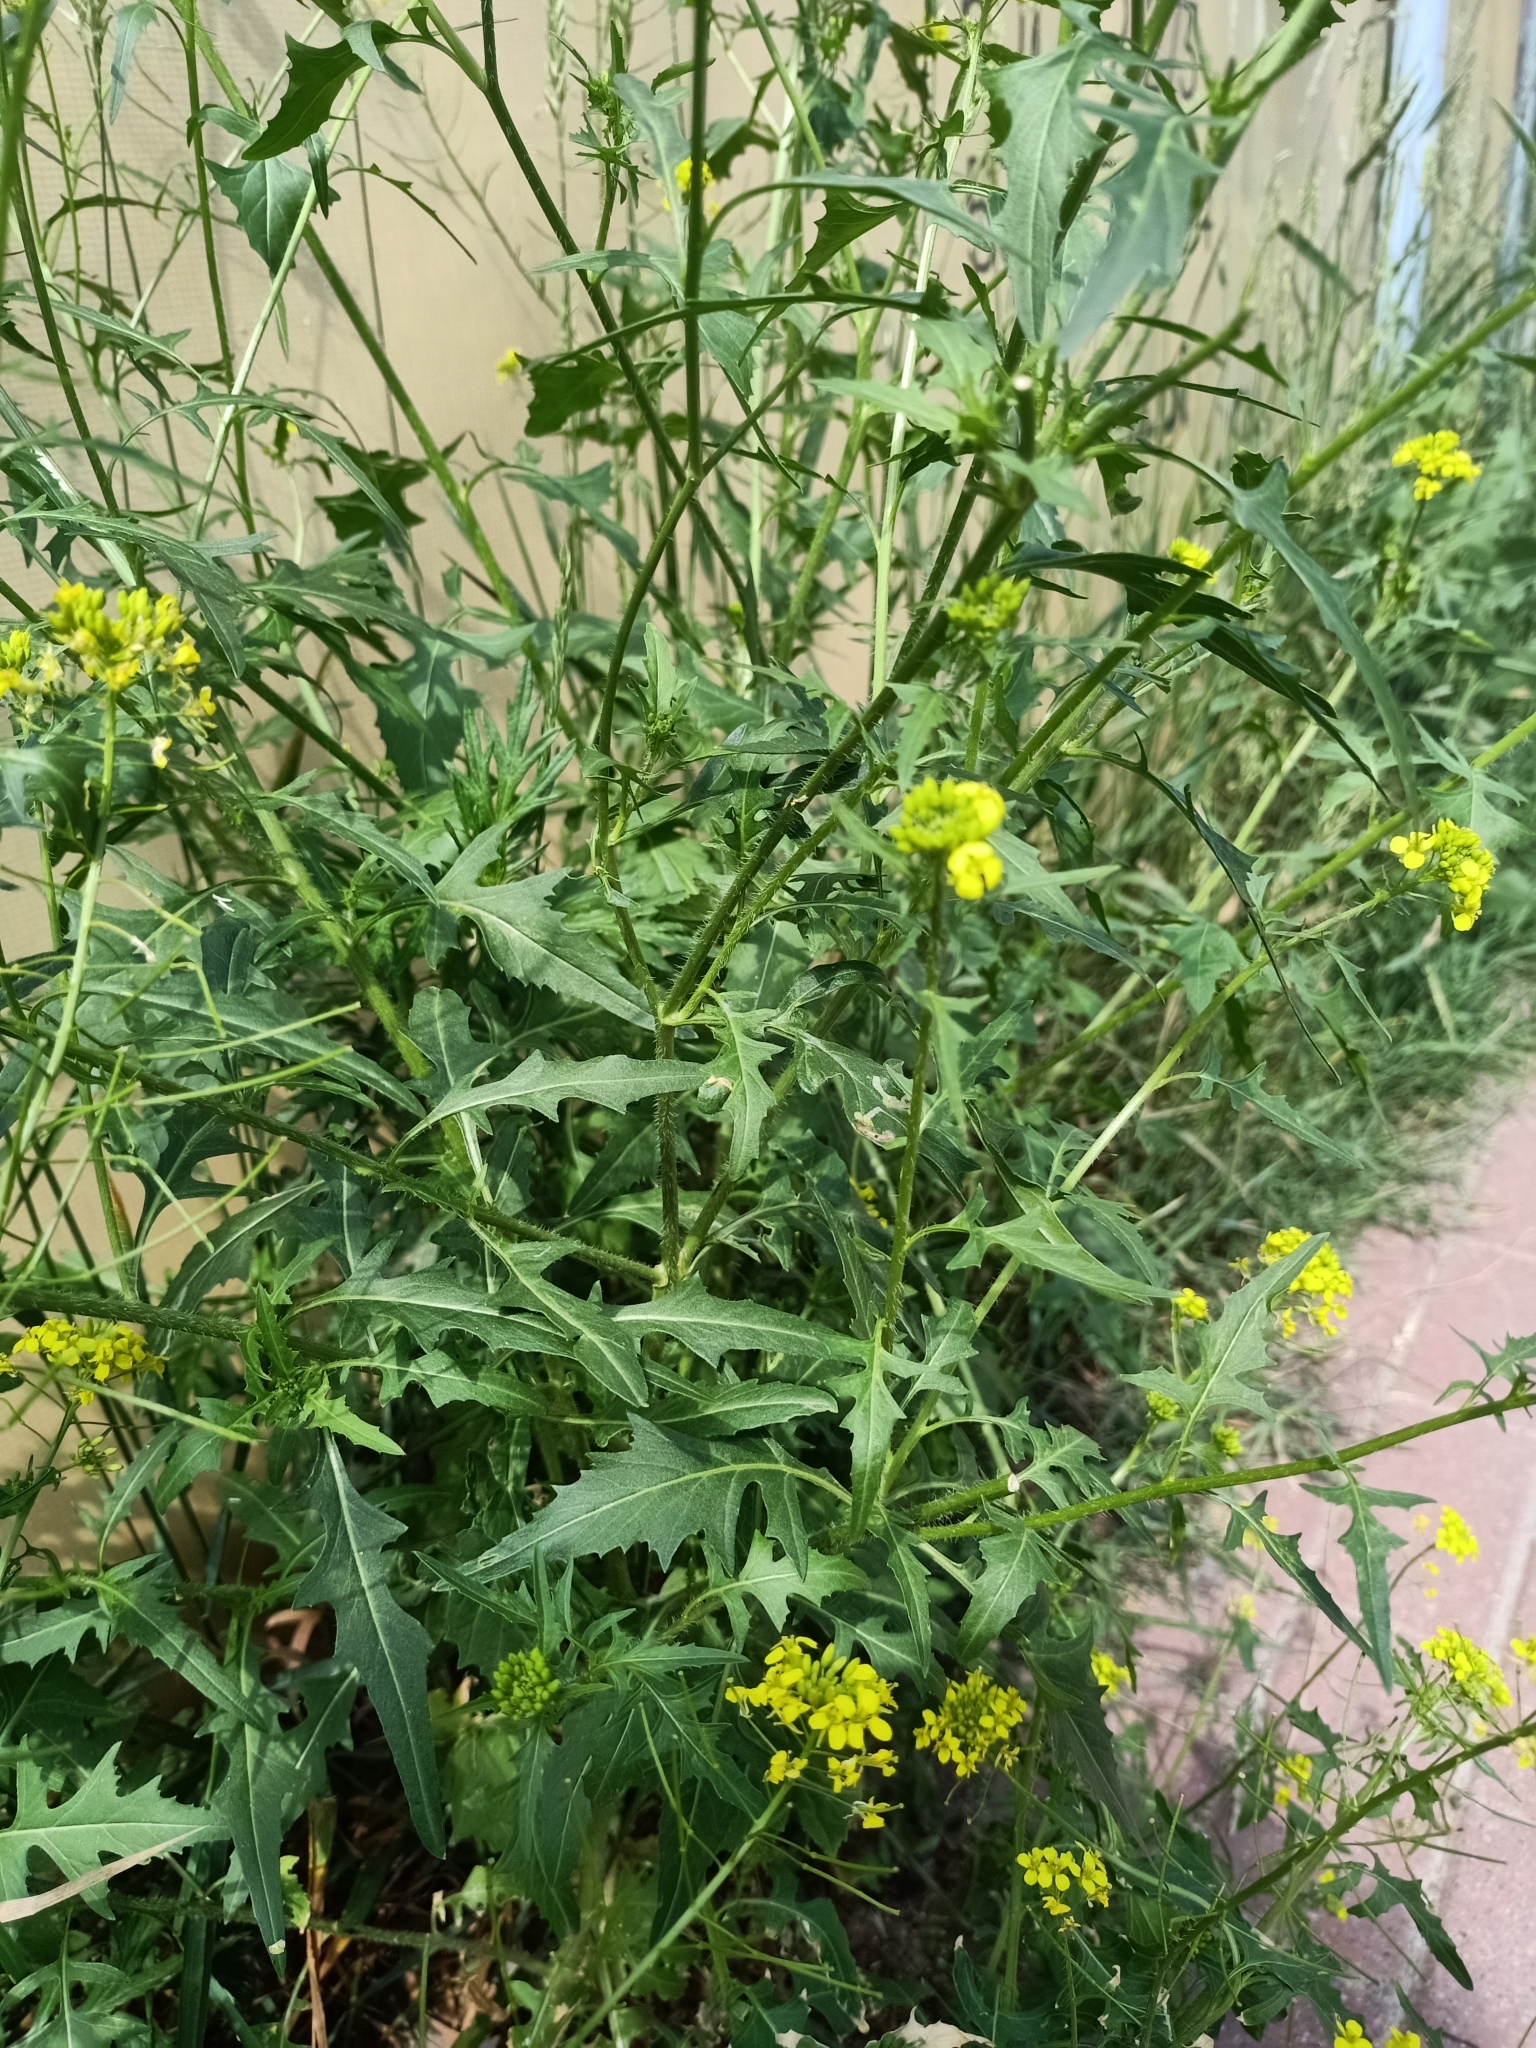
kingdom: Plantae
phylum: Tracheophyta
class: Magnoliopsida
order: Brassicales
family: Brassicaceae
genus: Sisymbrium
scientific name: Sisymbrium loeselii
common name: False london-rocket
